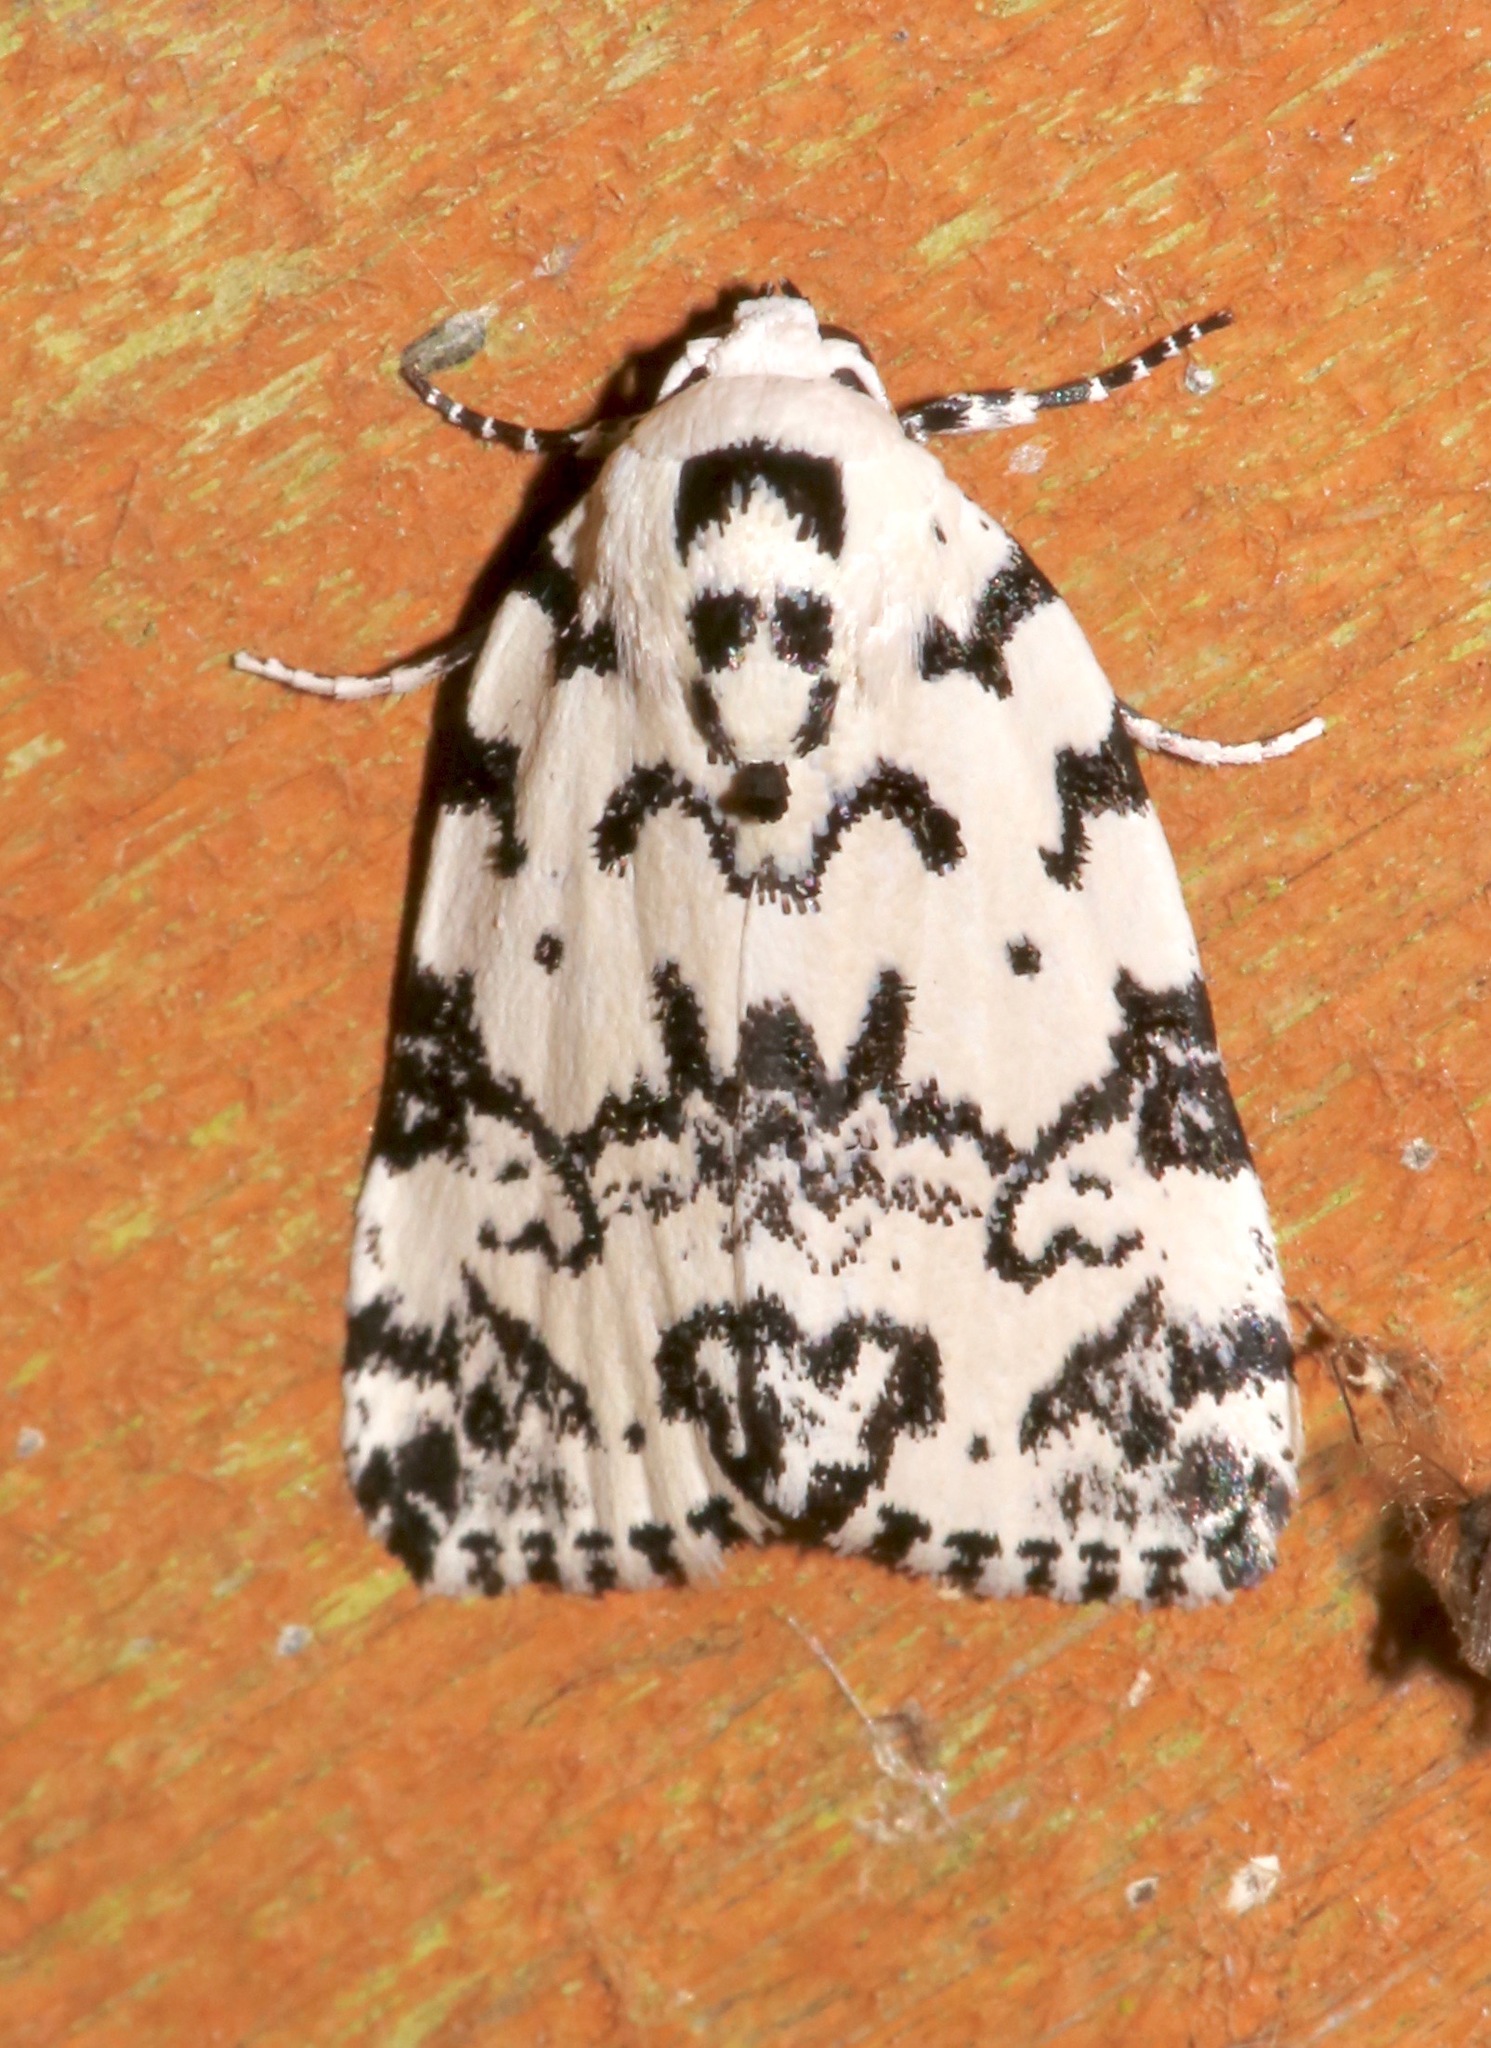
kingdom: Animalia
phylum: Arthropoda
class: Insecta
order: Lepidoptera
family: Noctuidae
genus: Polygrammate
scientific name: Polygrammate hebraeicum
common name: Hebrew moth
